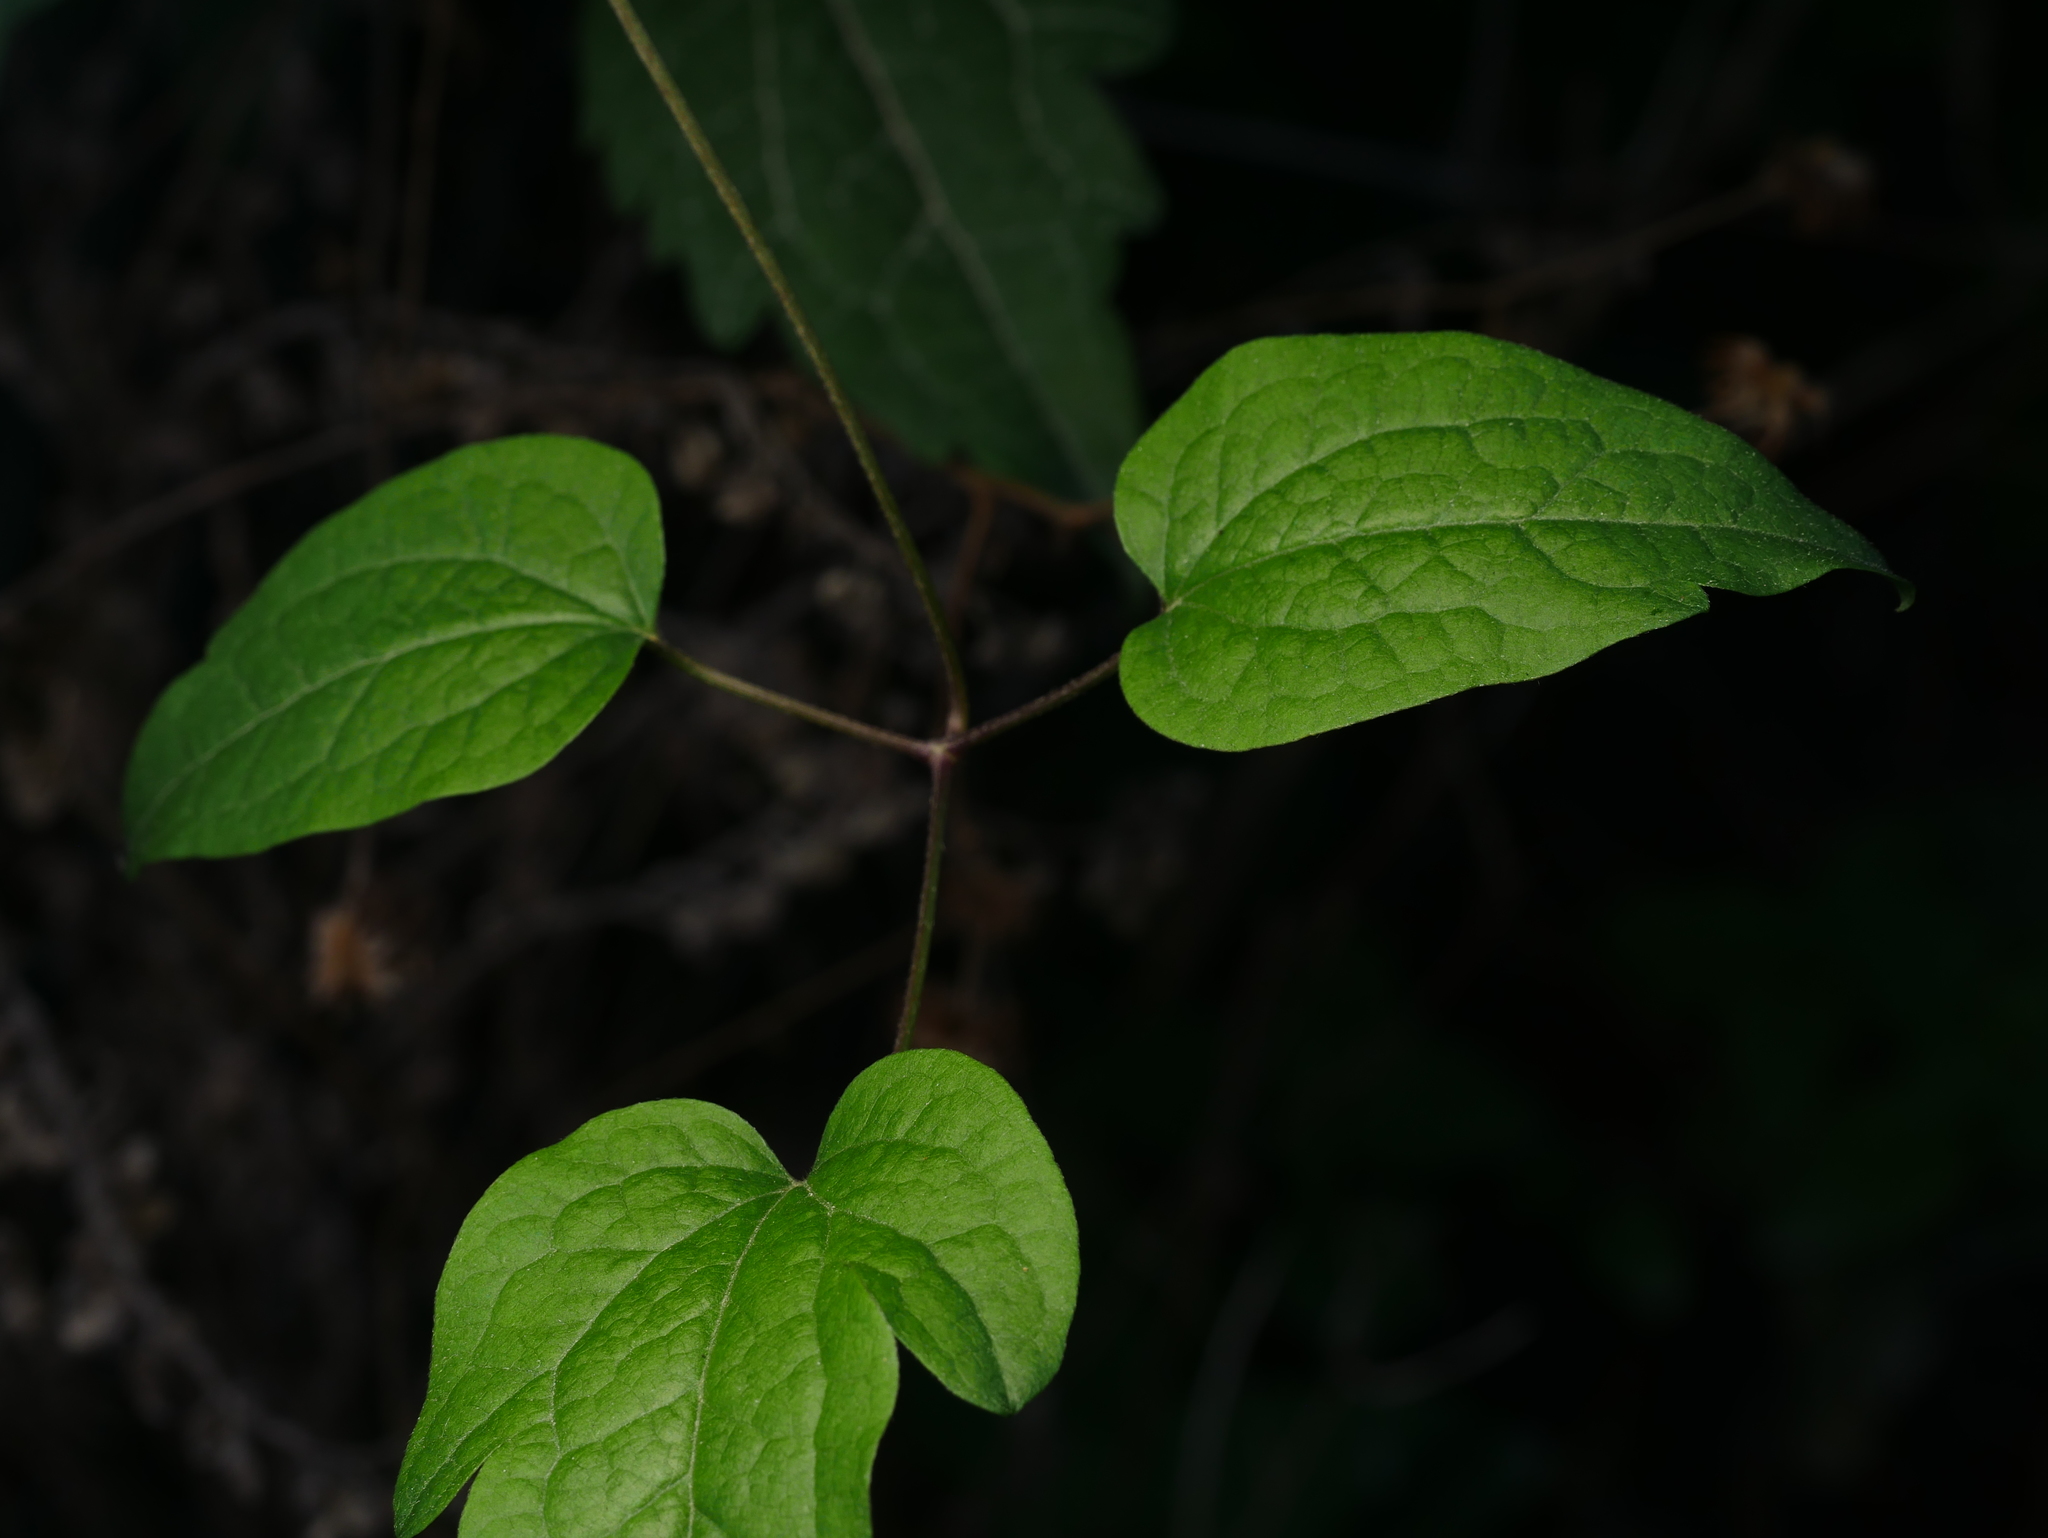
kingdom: Plantae
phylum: Tracheophyta
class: Magnoliopsida
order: Ranunculales
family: Ranunculaceae
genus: Clematis
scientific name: Clematis vitalba
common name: Evergreen clematis
